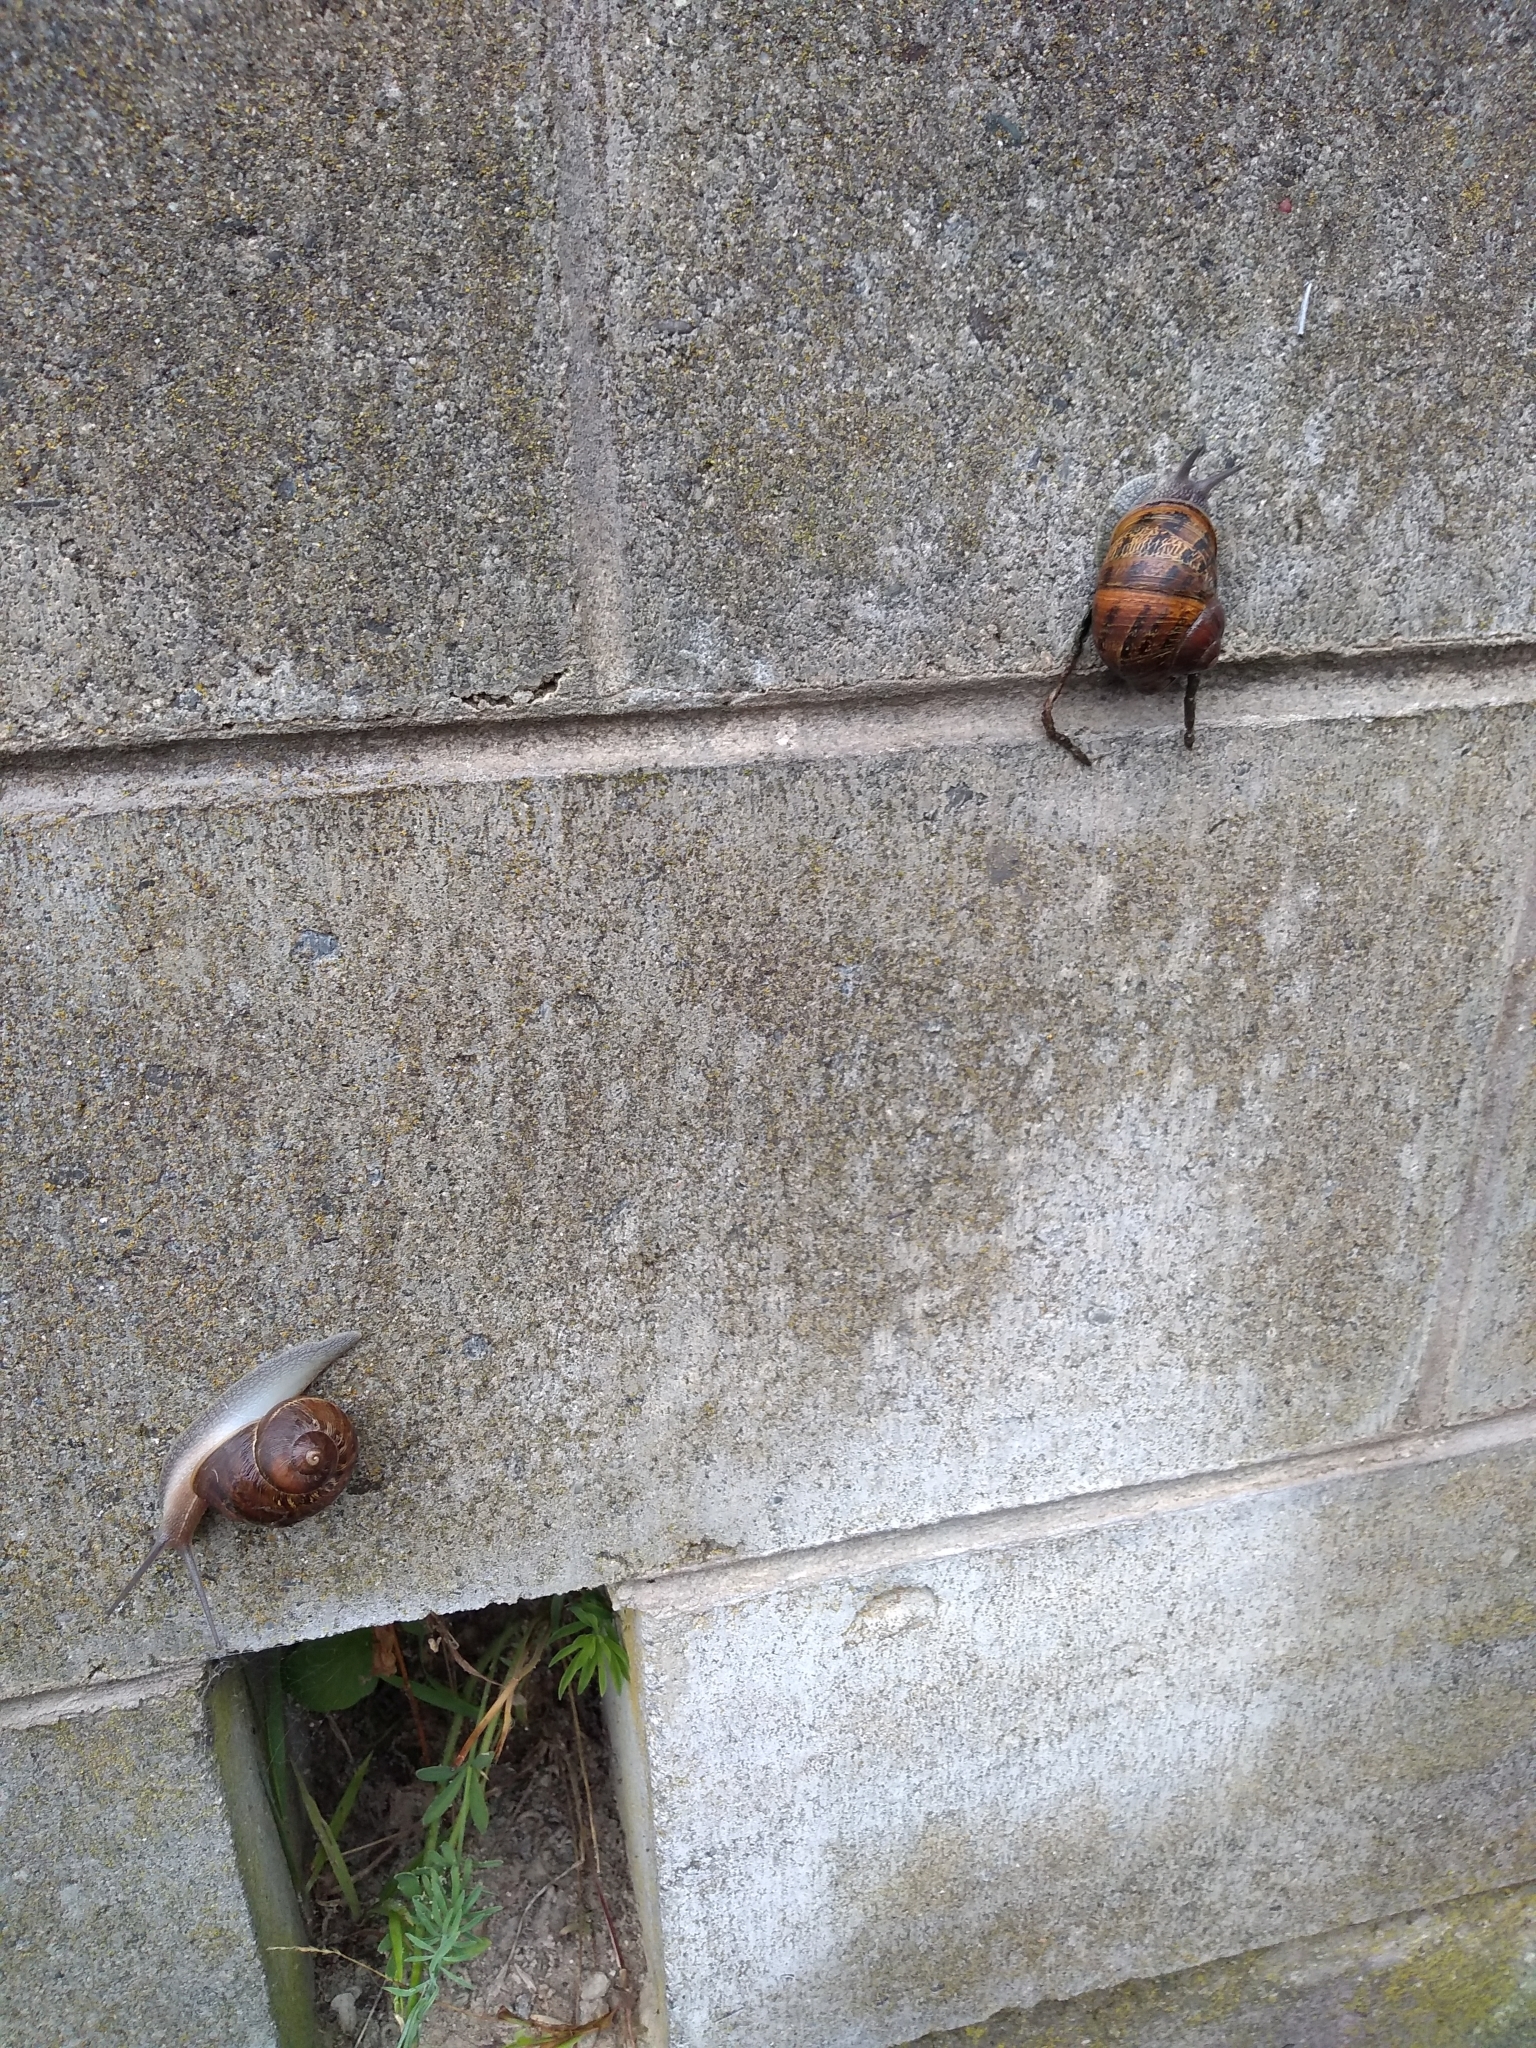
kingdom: Animalia
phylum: Mollusca
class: Gastropoda
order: Stylommatophora
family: Helicidae
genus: Cornu
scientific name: Cornu aspersum
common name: Brown garden snail
